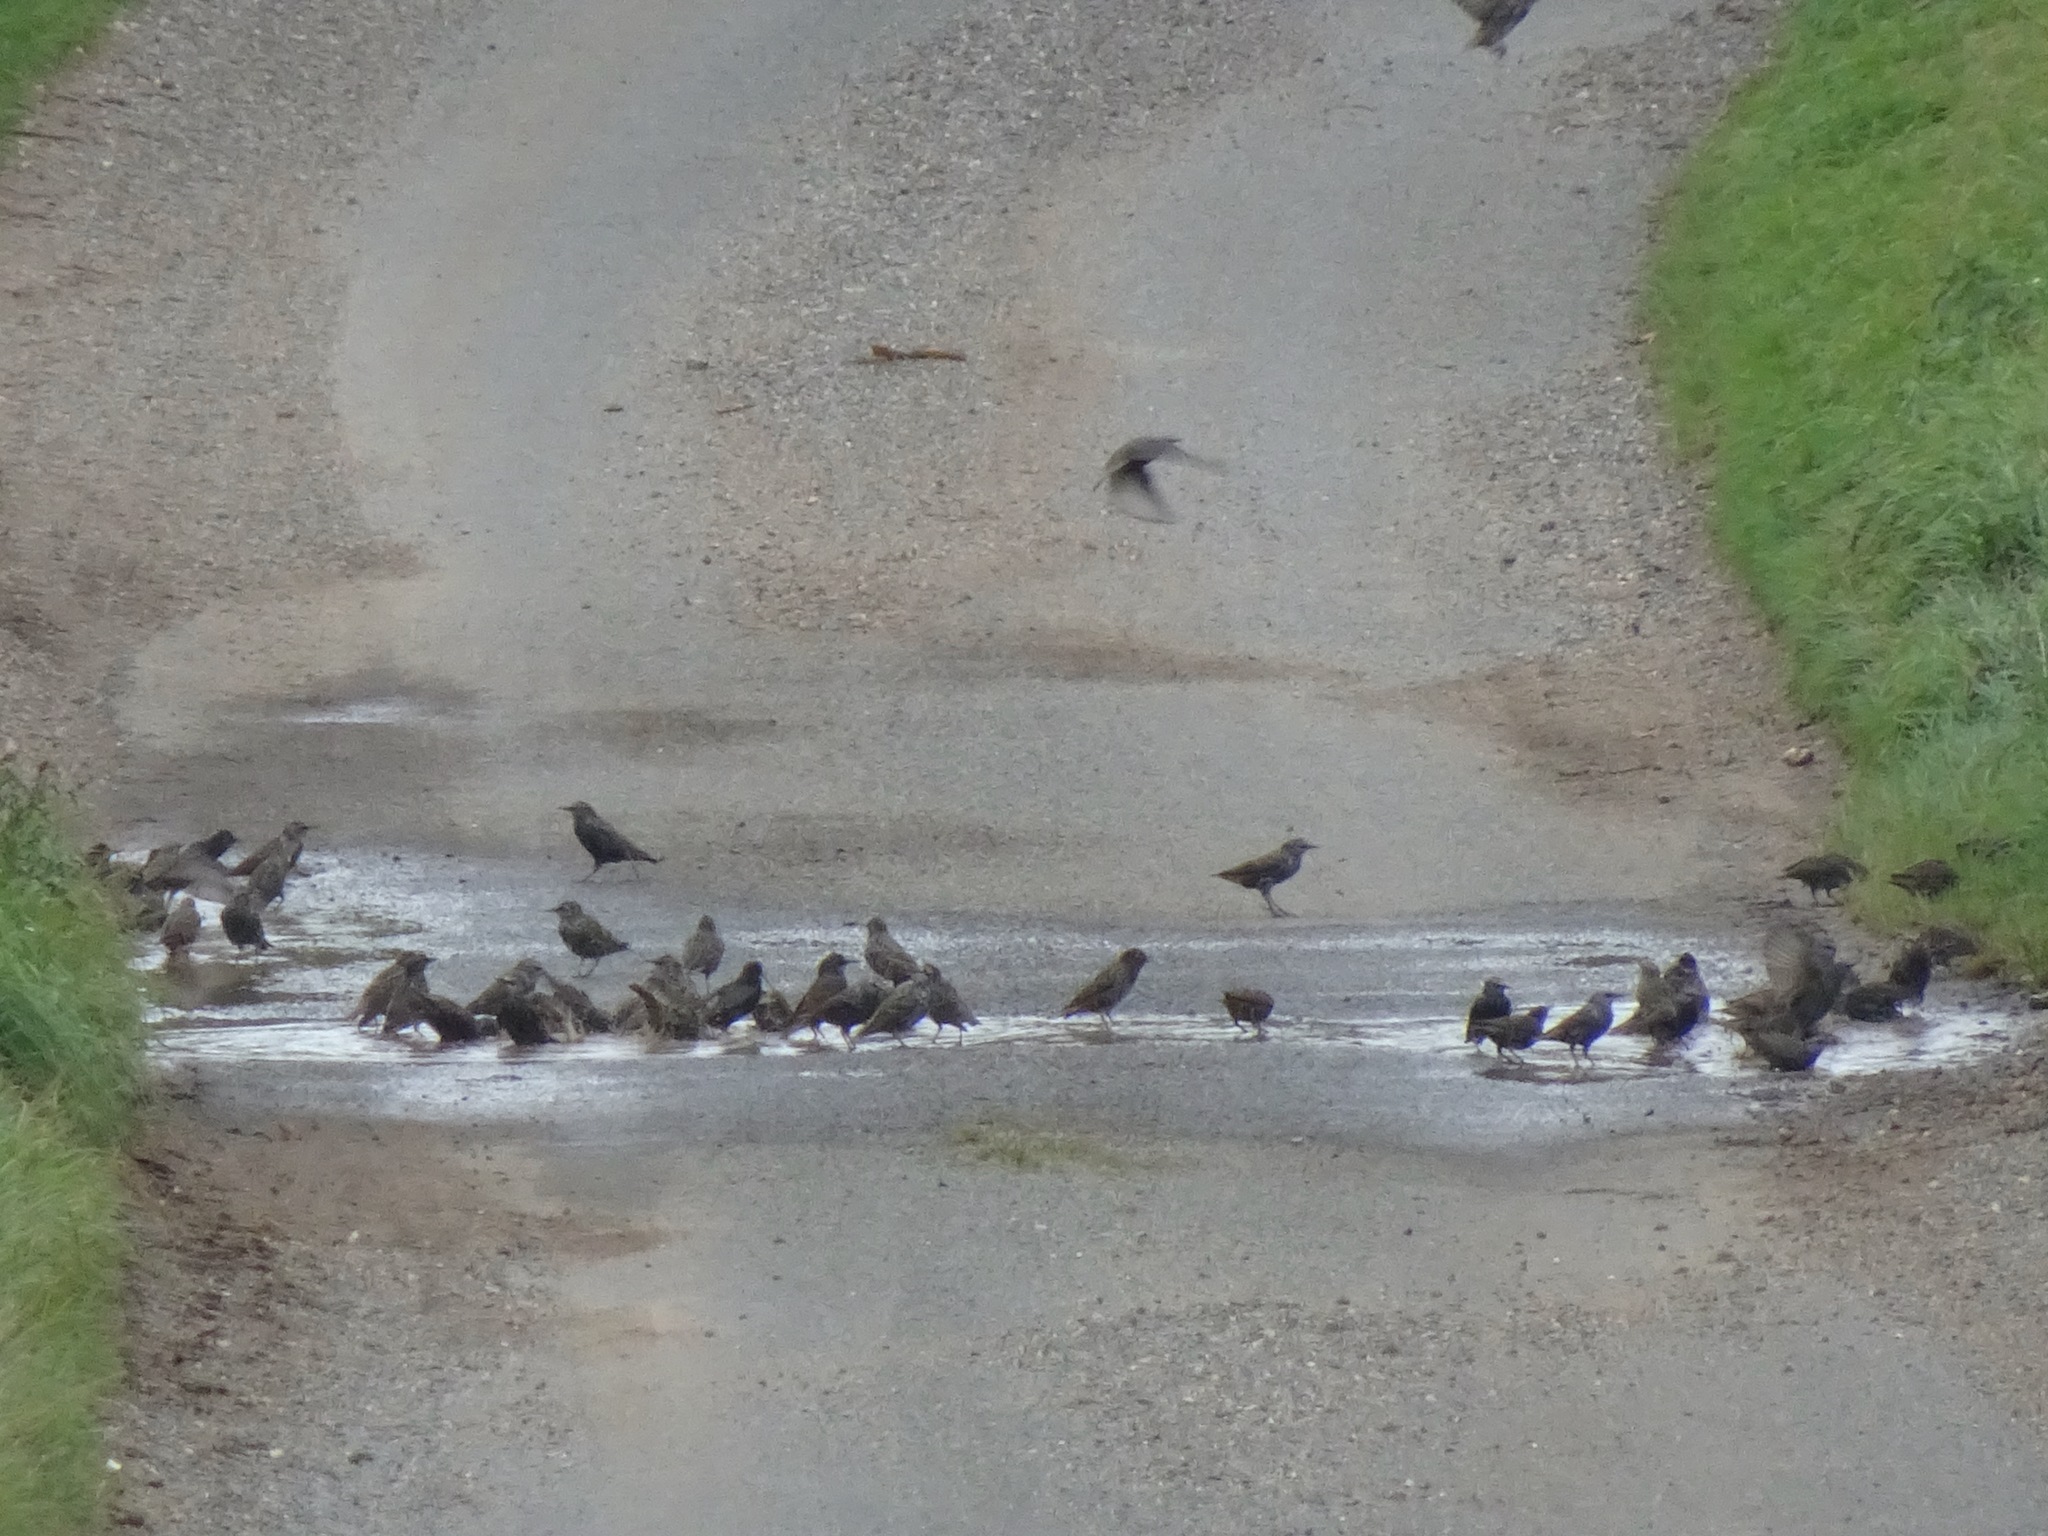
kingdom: Animalia
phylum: Chordata
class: Aves
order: Passeriformes
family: Sturnidae
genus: Sturnus
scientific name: Sturnus vulgaris
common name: Common starling
